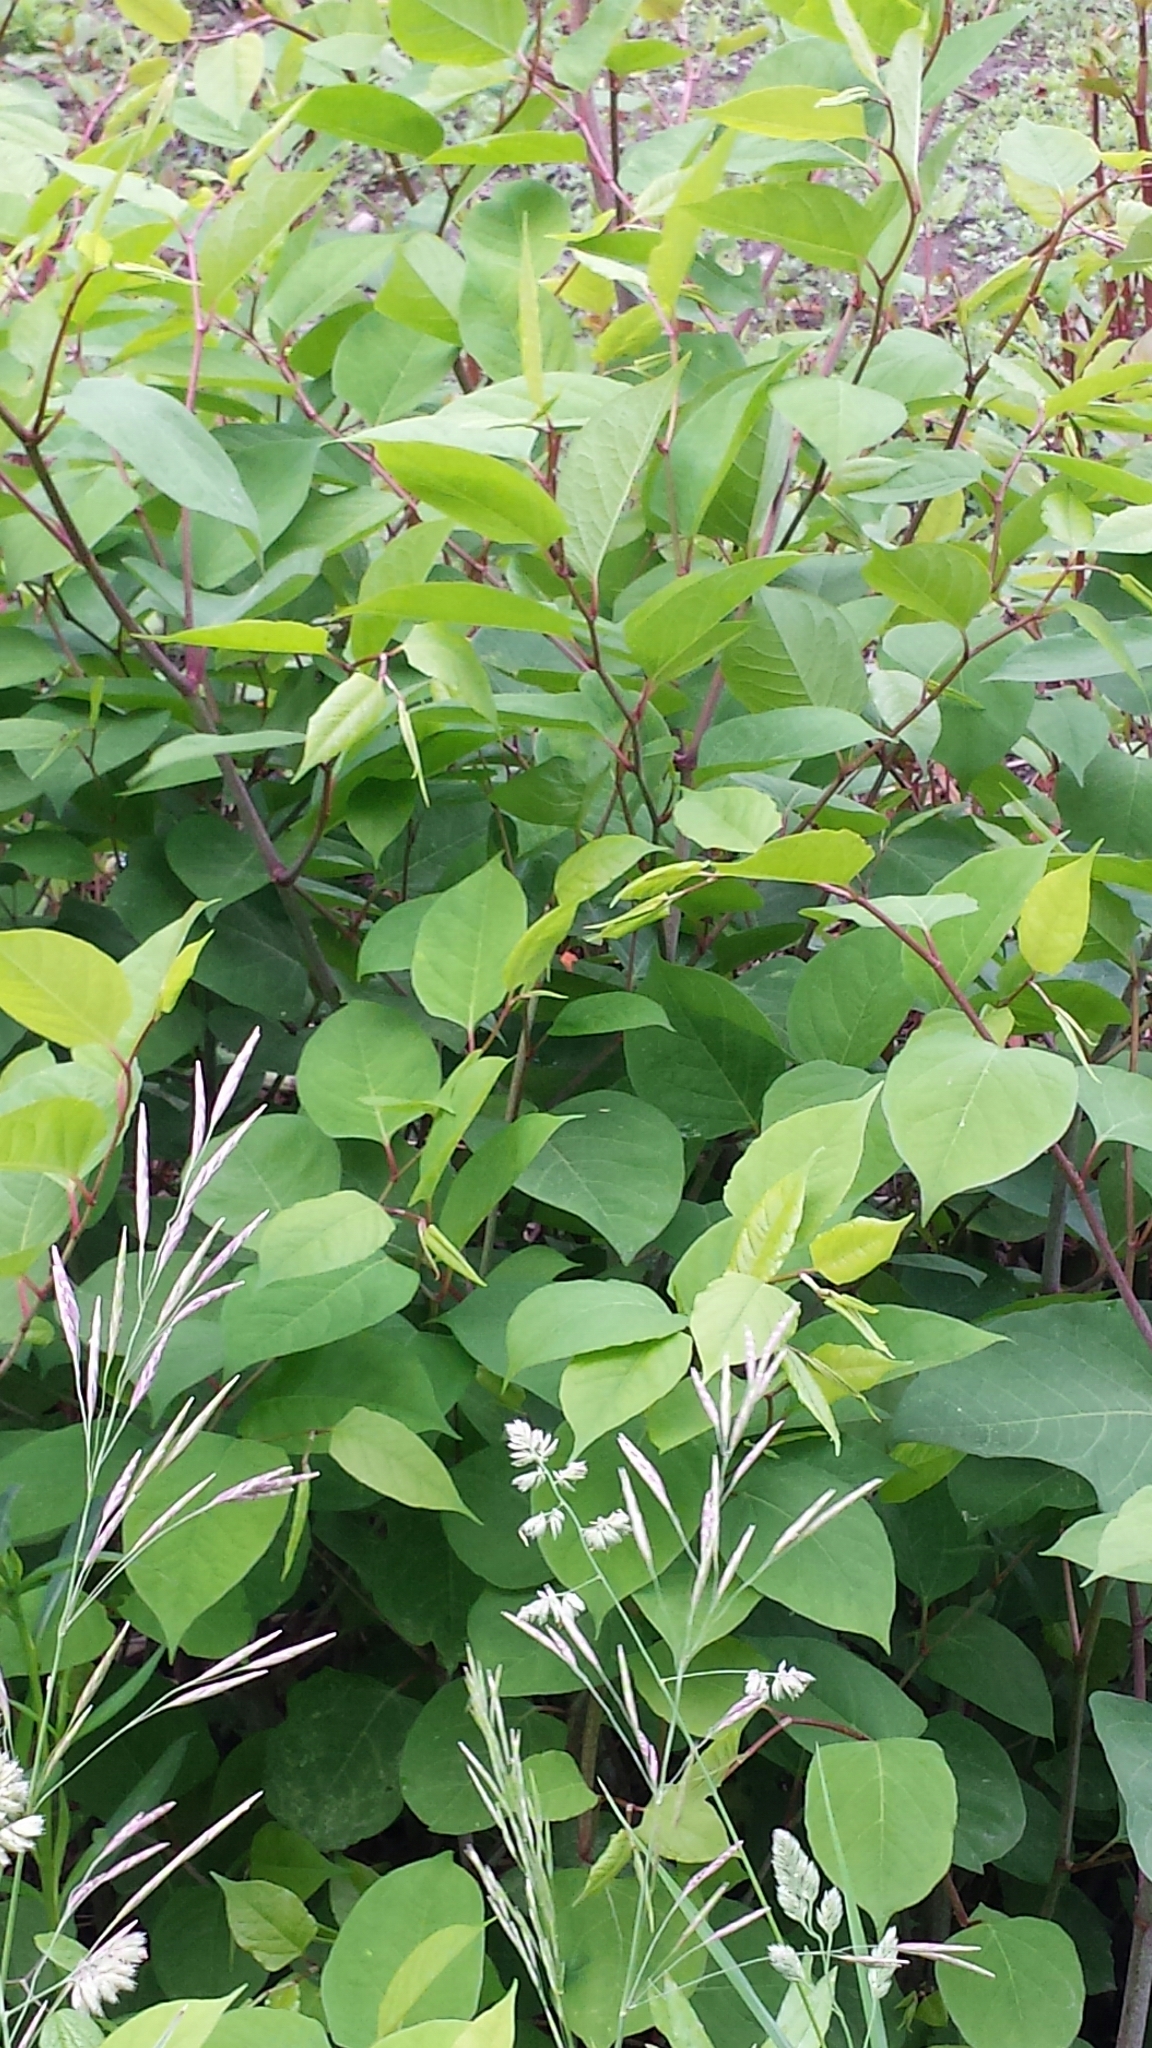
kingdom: Plantae
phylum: Tracheophyta
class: Magnoliopsida
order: Caryophyllales
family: Polygonaceae
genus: Reynoutria
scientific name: Reynoutria japonica
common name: Japanese knotweed
